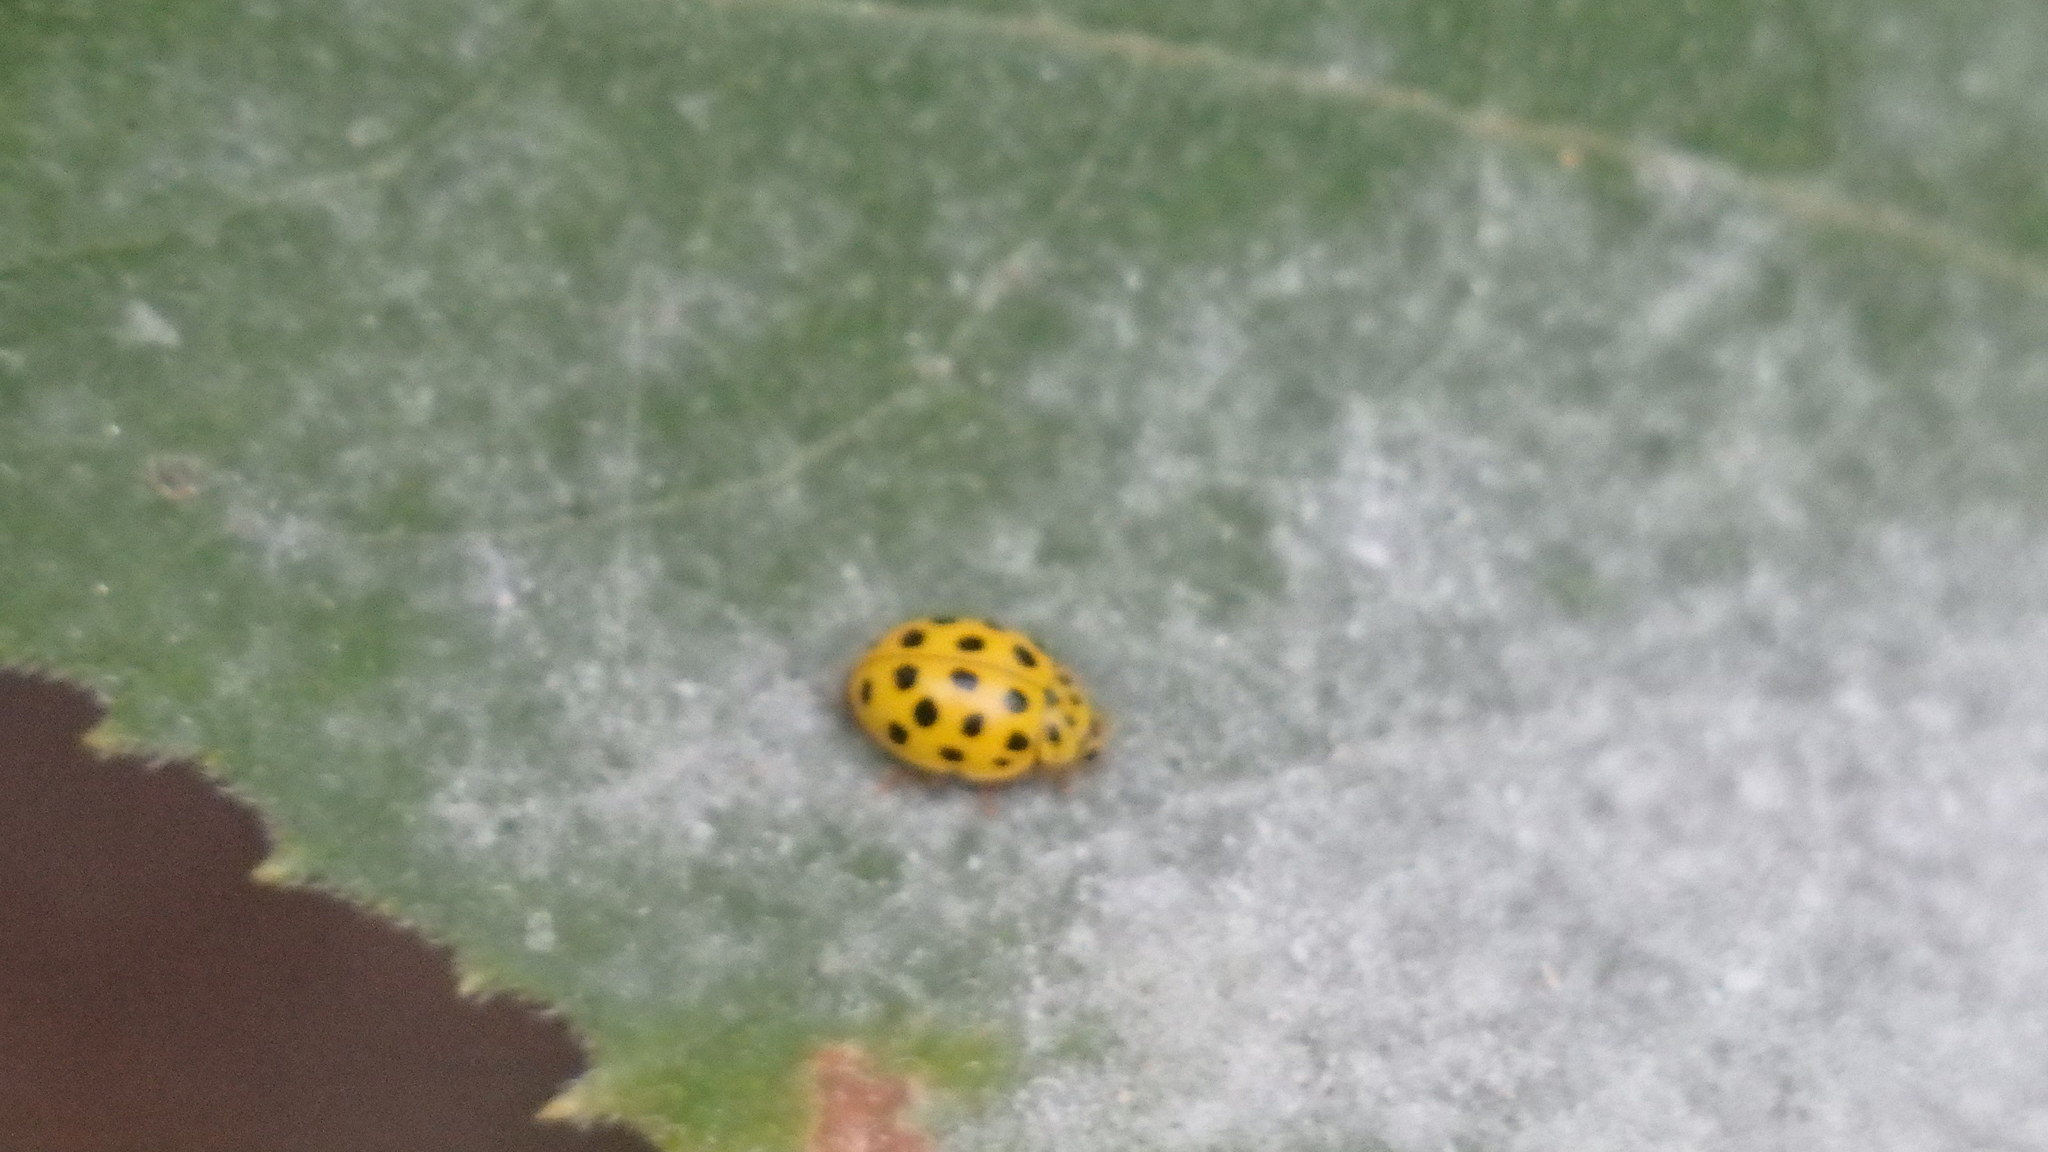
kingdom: Animalia
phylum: Arthropoda
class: Insecta
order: Coleoptera
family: Coccinellidae
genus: Psyllobora
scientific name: Psyllobora vigintiduopunctata
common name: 22-spot ladybird
